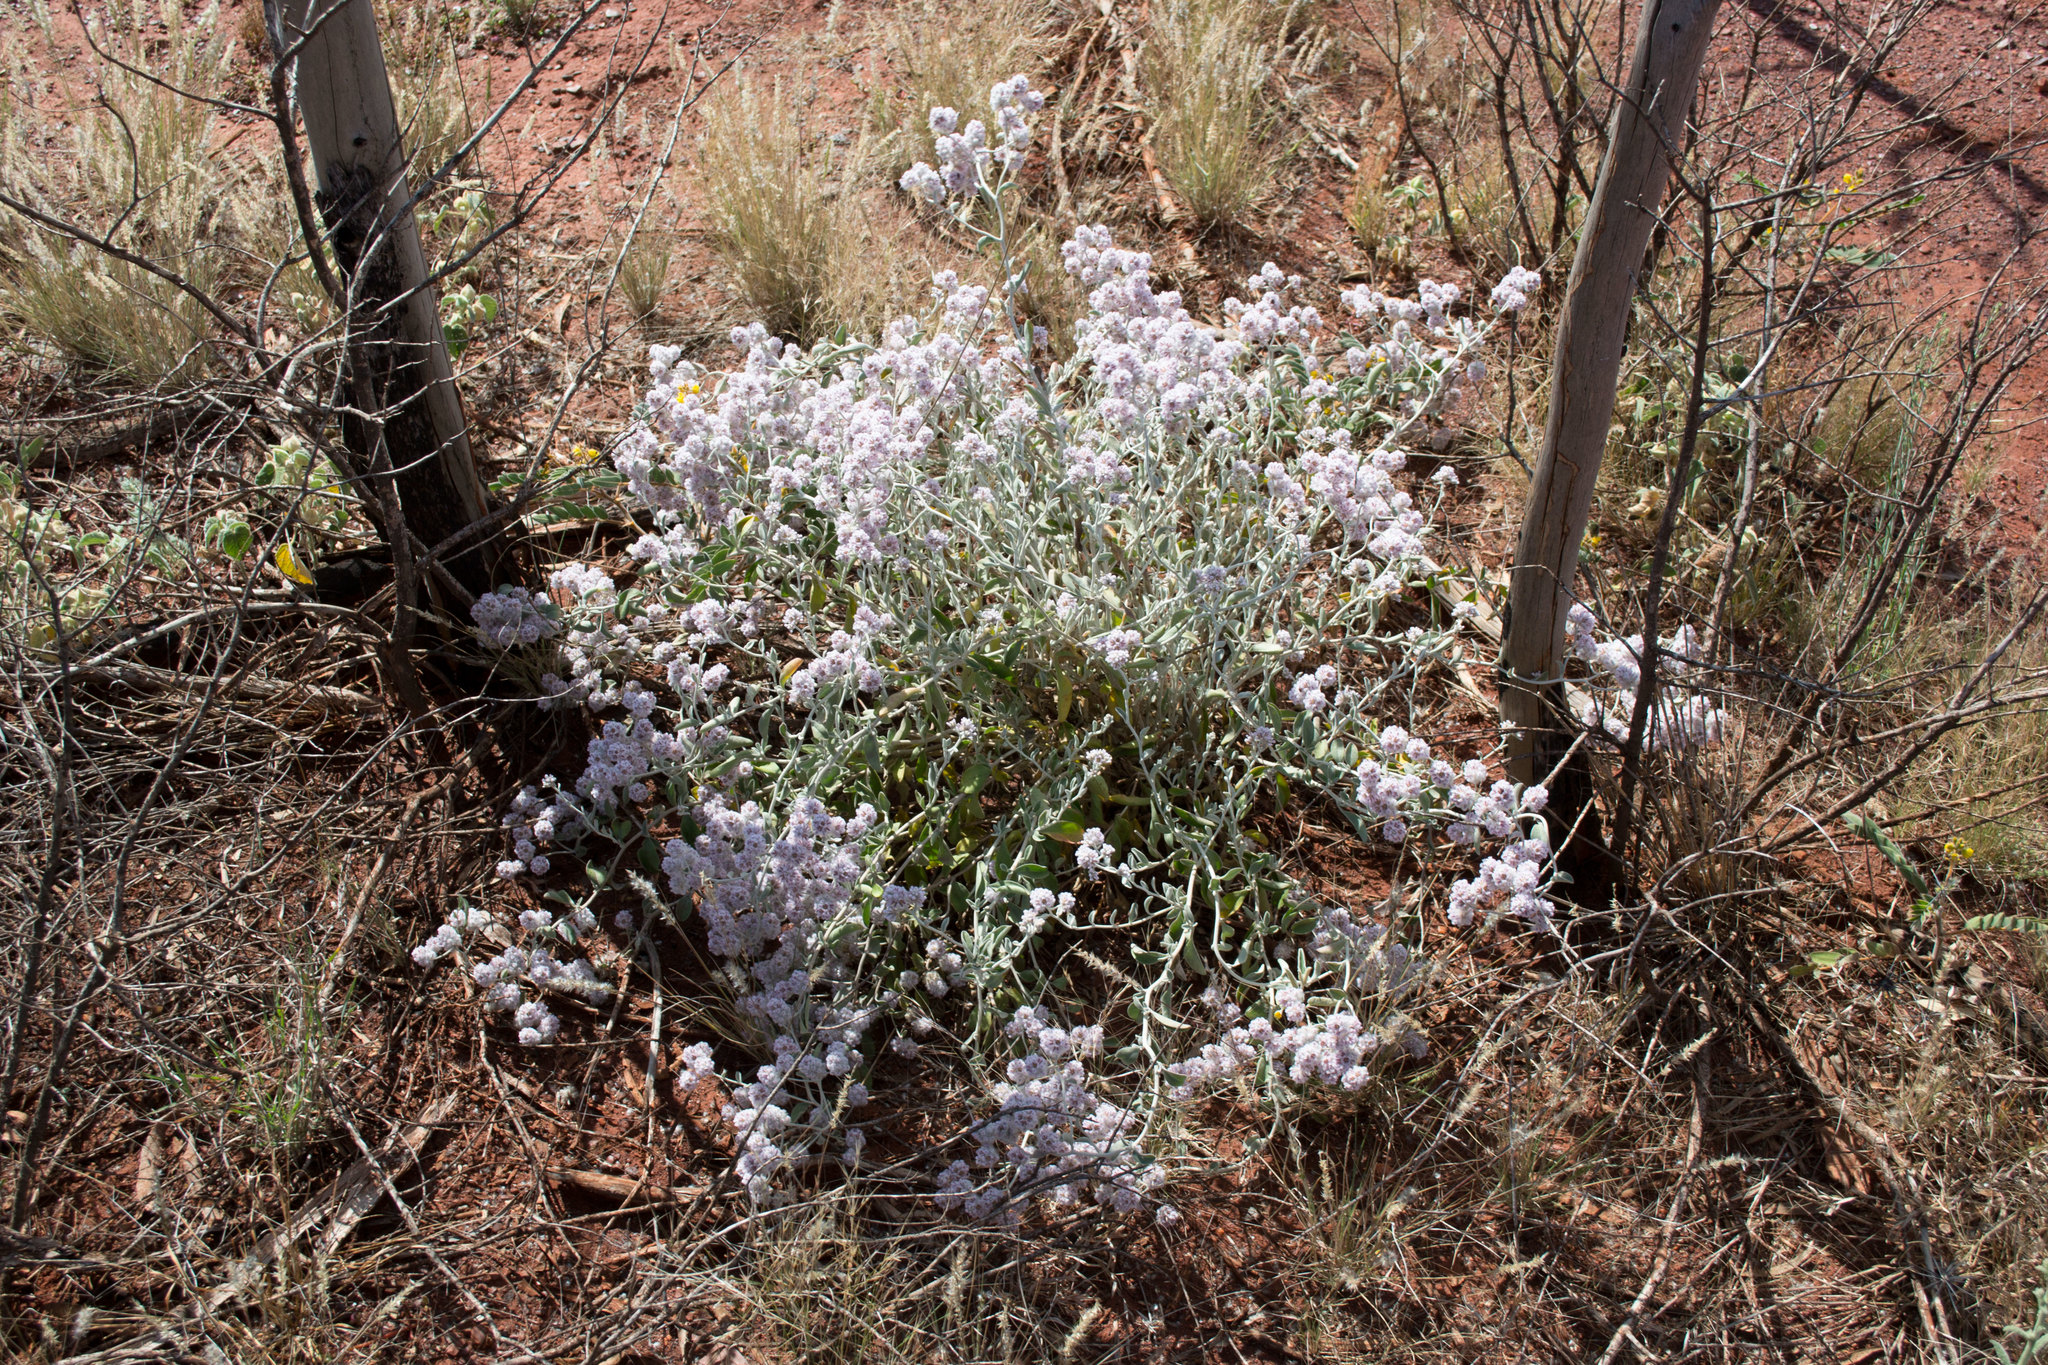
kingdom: Plantae
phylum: Tracheophyta
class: Magnoliopsida
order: Caryophyllales
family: Amaranthaceae
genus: Ptilotus
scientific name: Ptilotus obovatus
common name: Cottonbush
